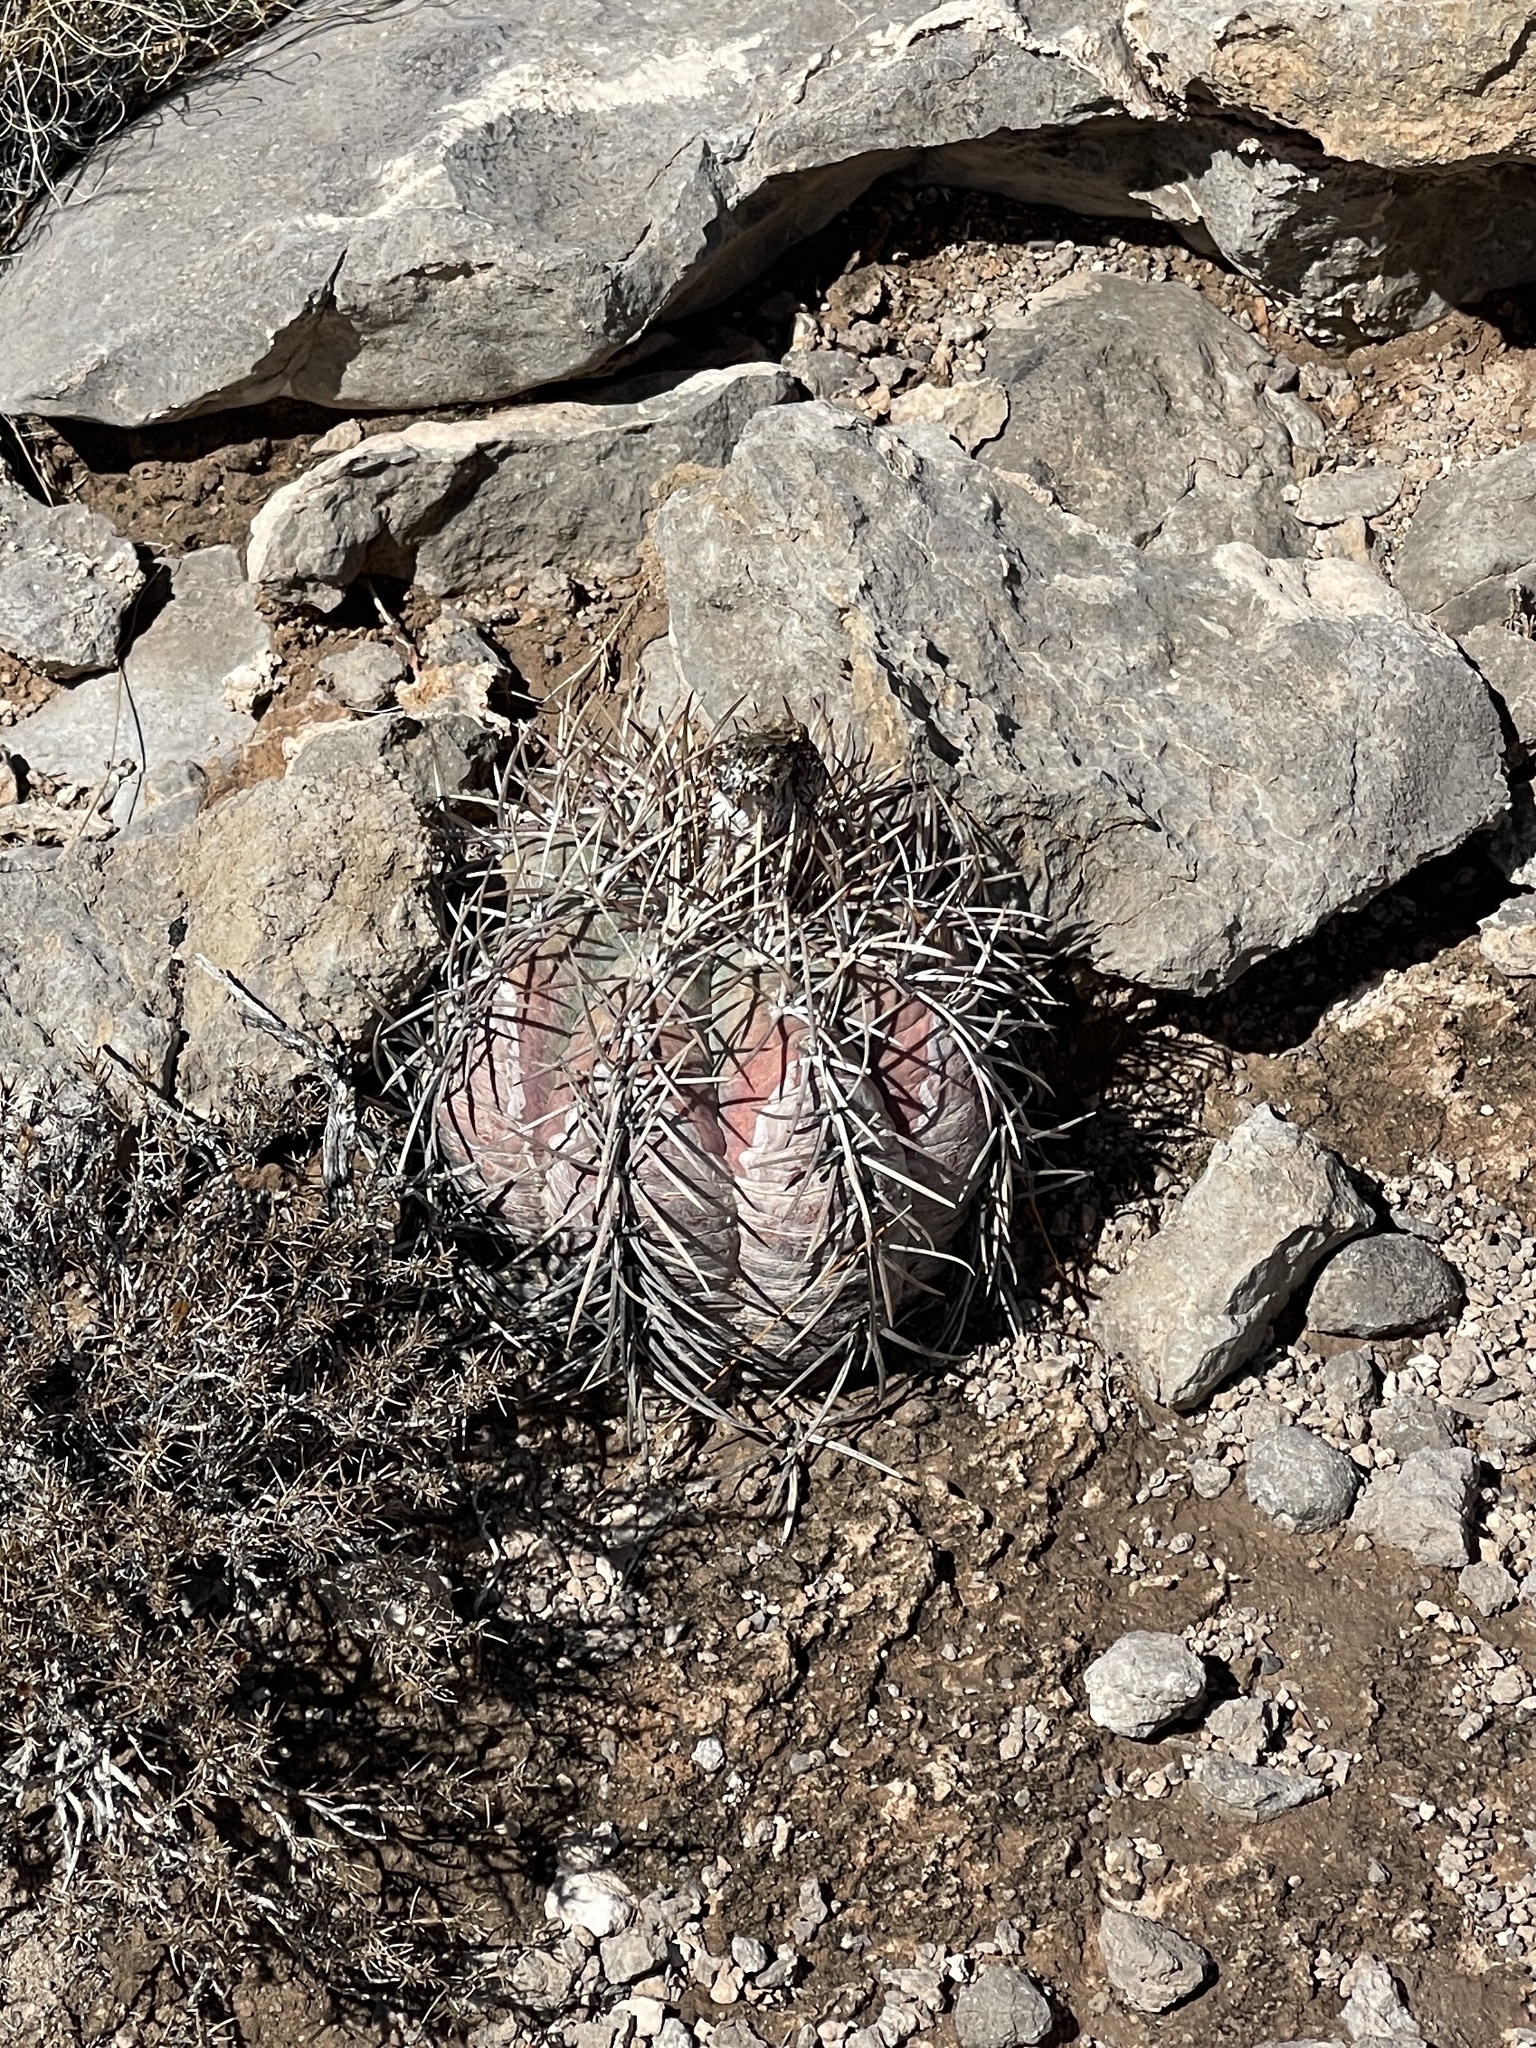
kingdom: Plantae
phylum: Tracheophyta
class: Magnoliopsida
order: Caryophyllales
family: Cactaceae
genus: Echinocactus
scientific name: Echinocactus horizonthalonius
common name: Devilshead
